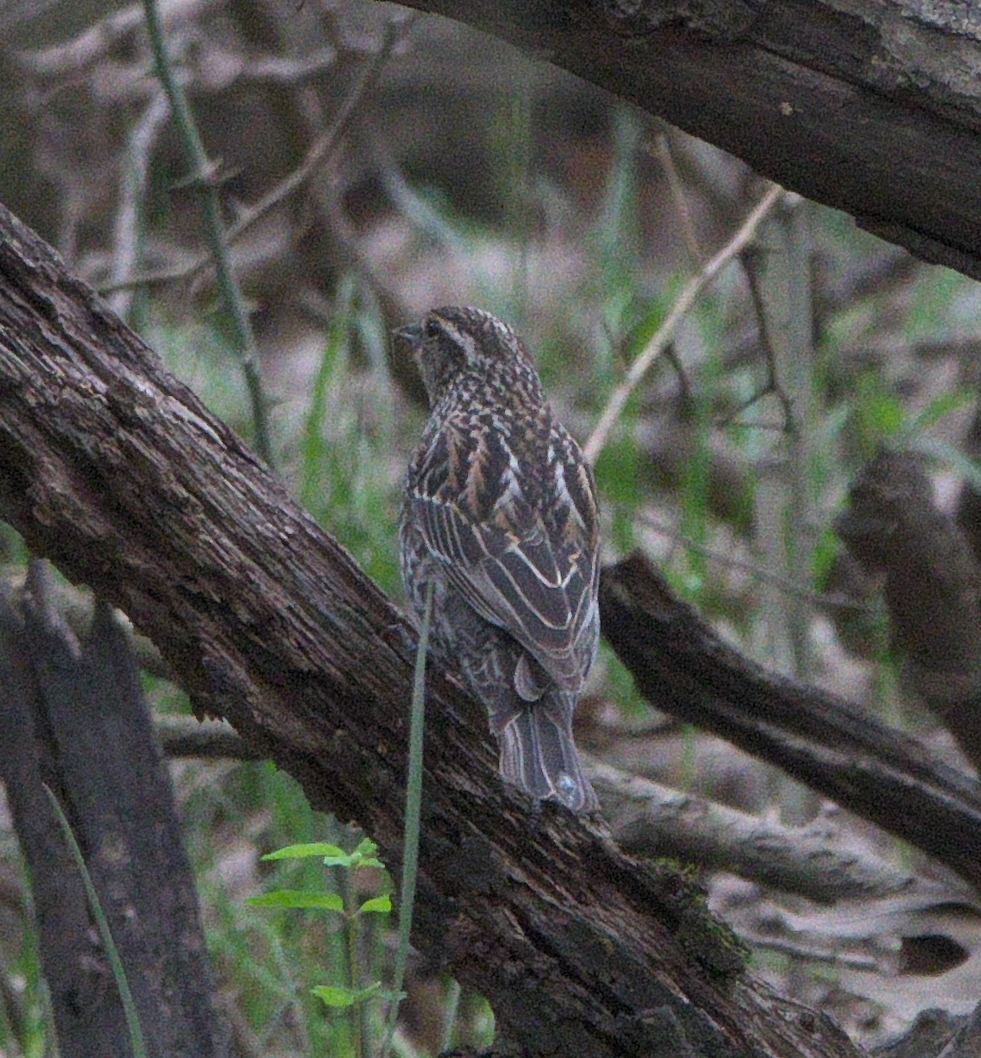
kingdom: Animalia
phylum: Chordata
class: Aves
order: Passeriformes
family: Icteridae
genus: Agelaius
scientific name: Agelaius phoeniceus
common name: Red-winged blackbird
